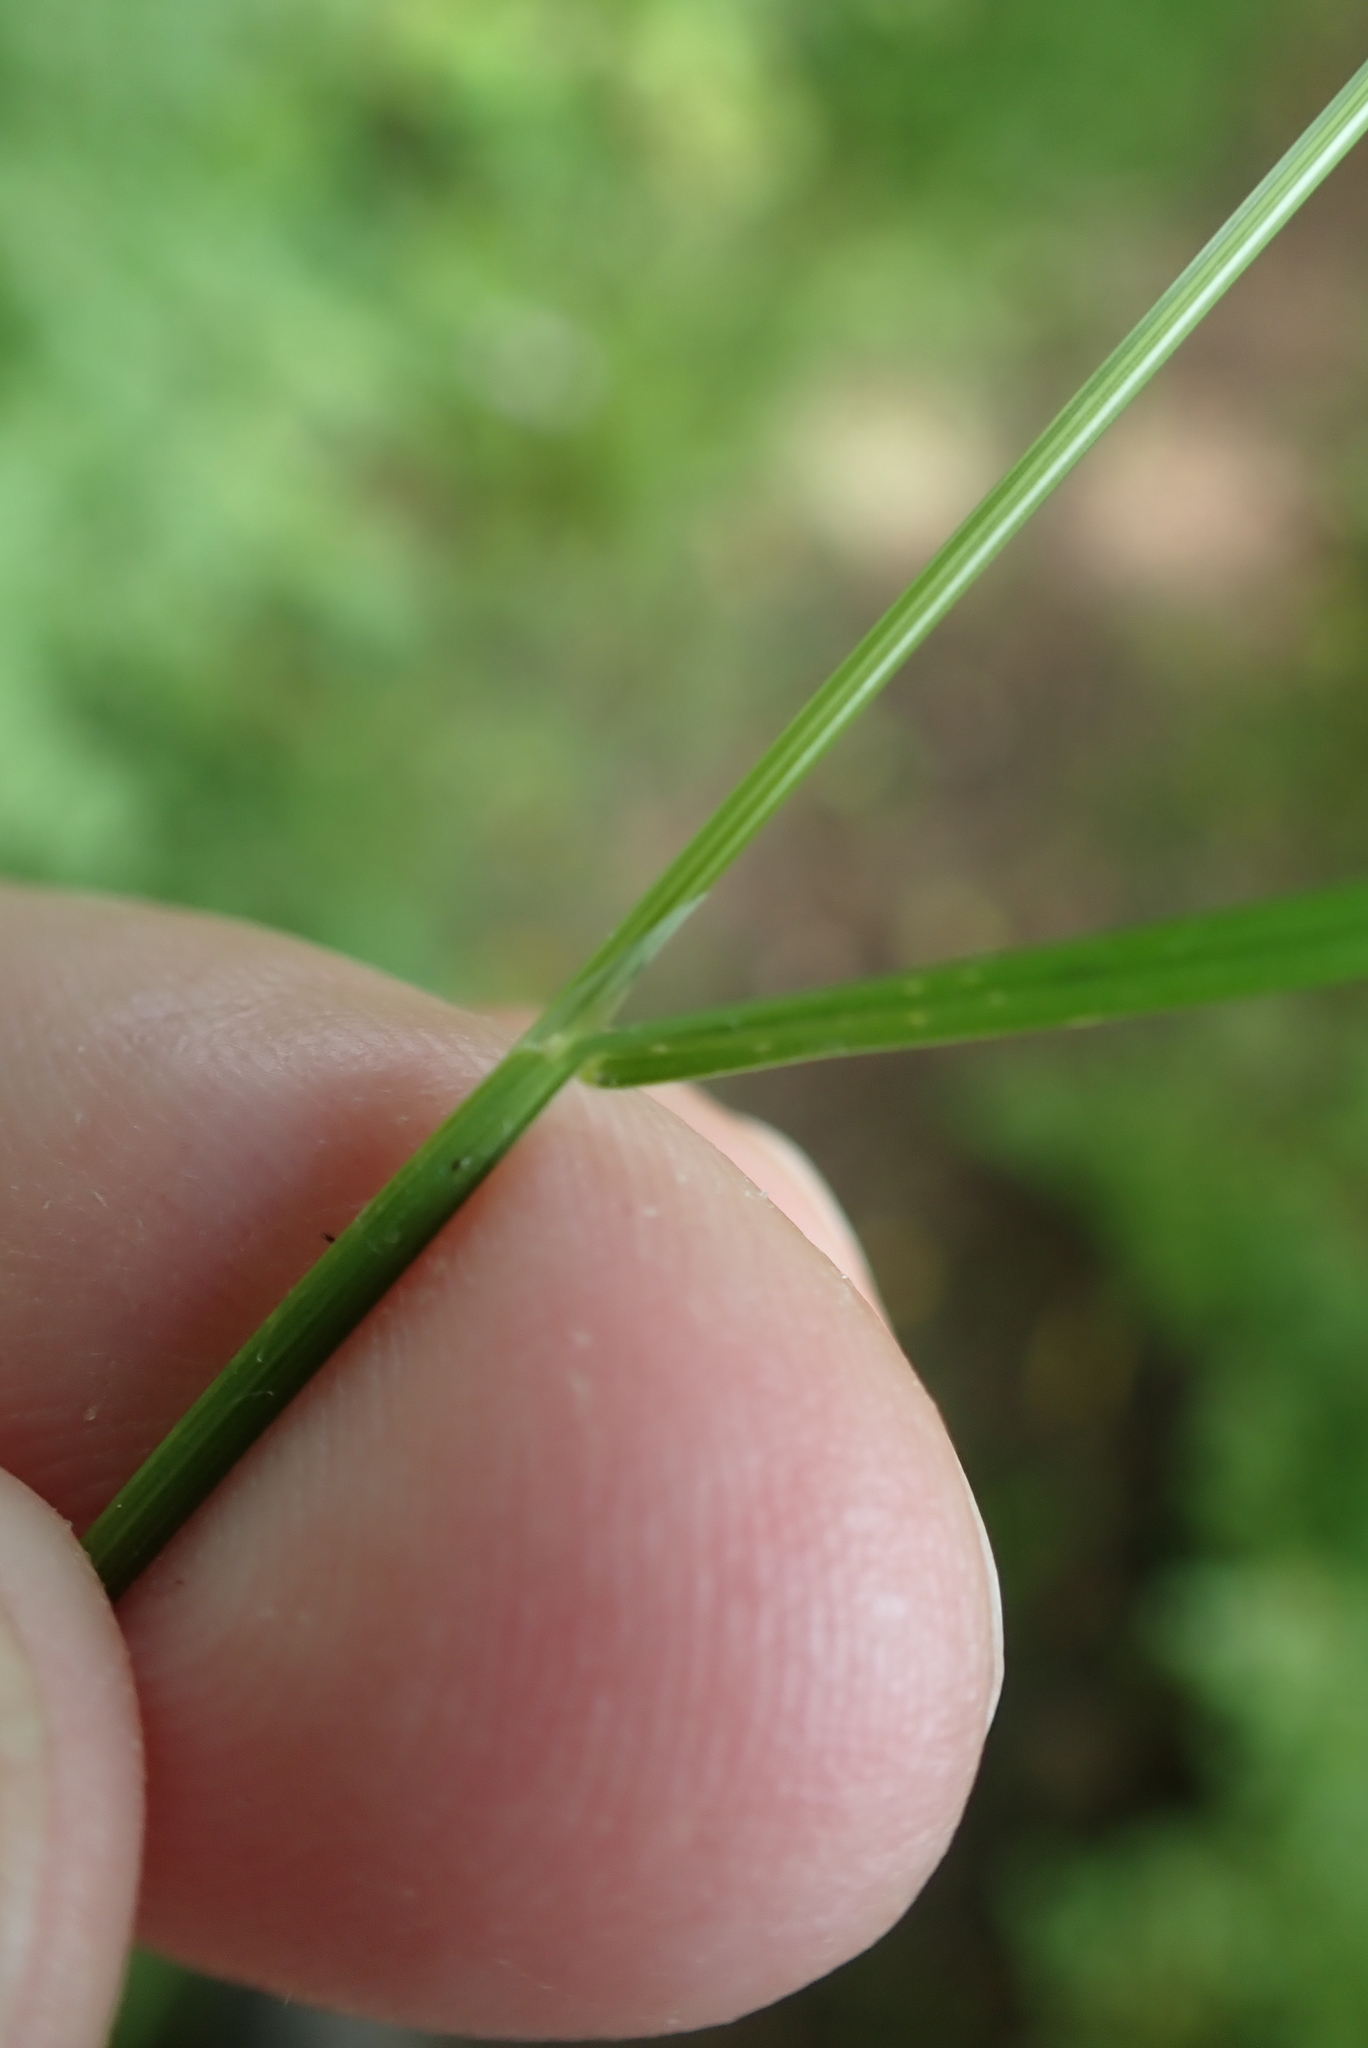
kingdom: Plantae
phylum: Tracheophyta
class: Liliopsida
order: Poales
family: Poaceae
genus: Poa
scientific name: Poa trivialis
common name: Rough bluegrass
